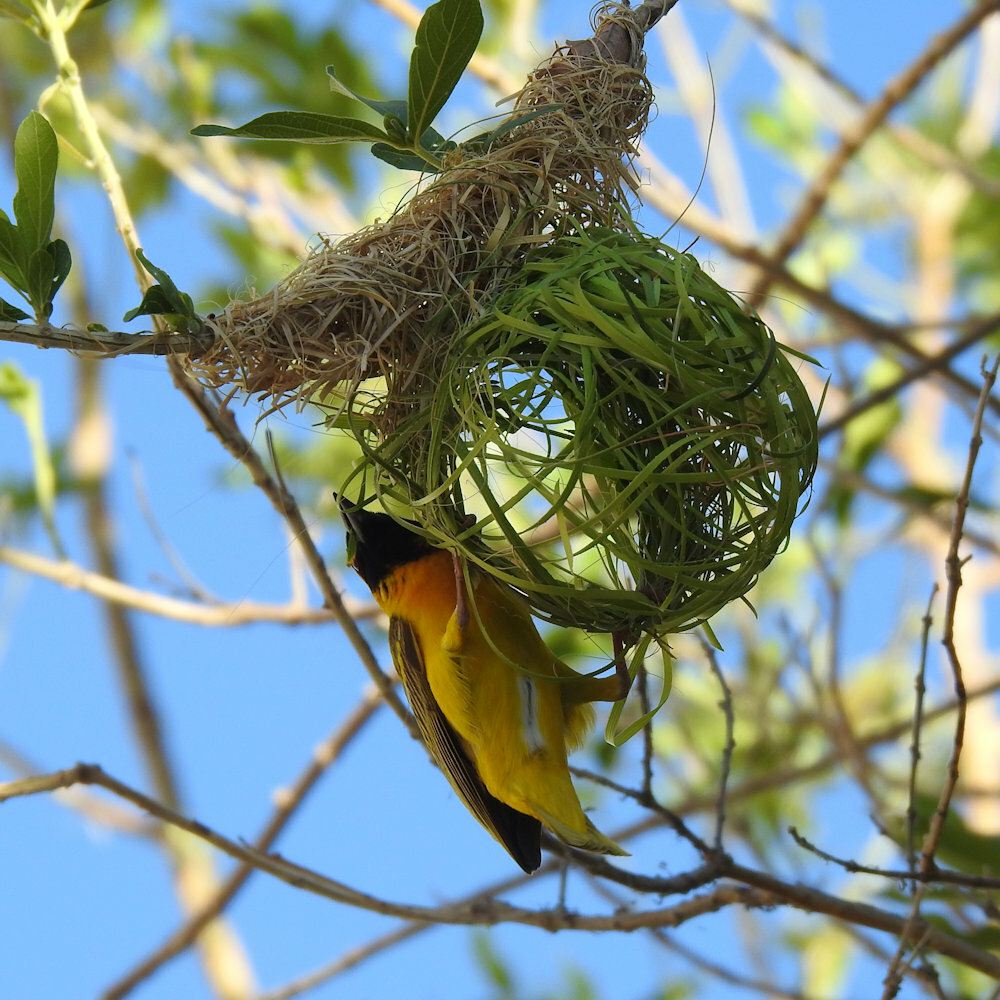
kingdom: Animalia
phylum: Chordata
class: Aves
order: Passeriformes
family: Ploceidae
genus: Ploceus
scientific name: Ploceus velatus
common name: Southern masked weaver
